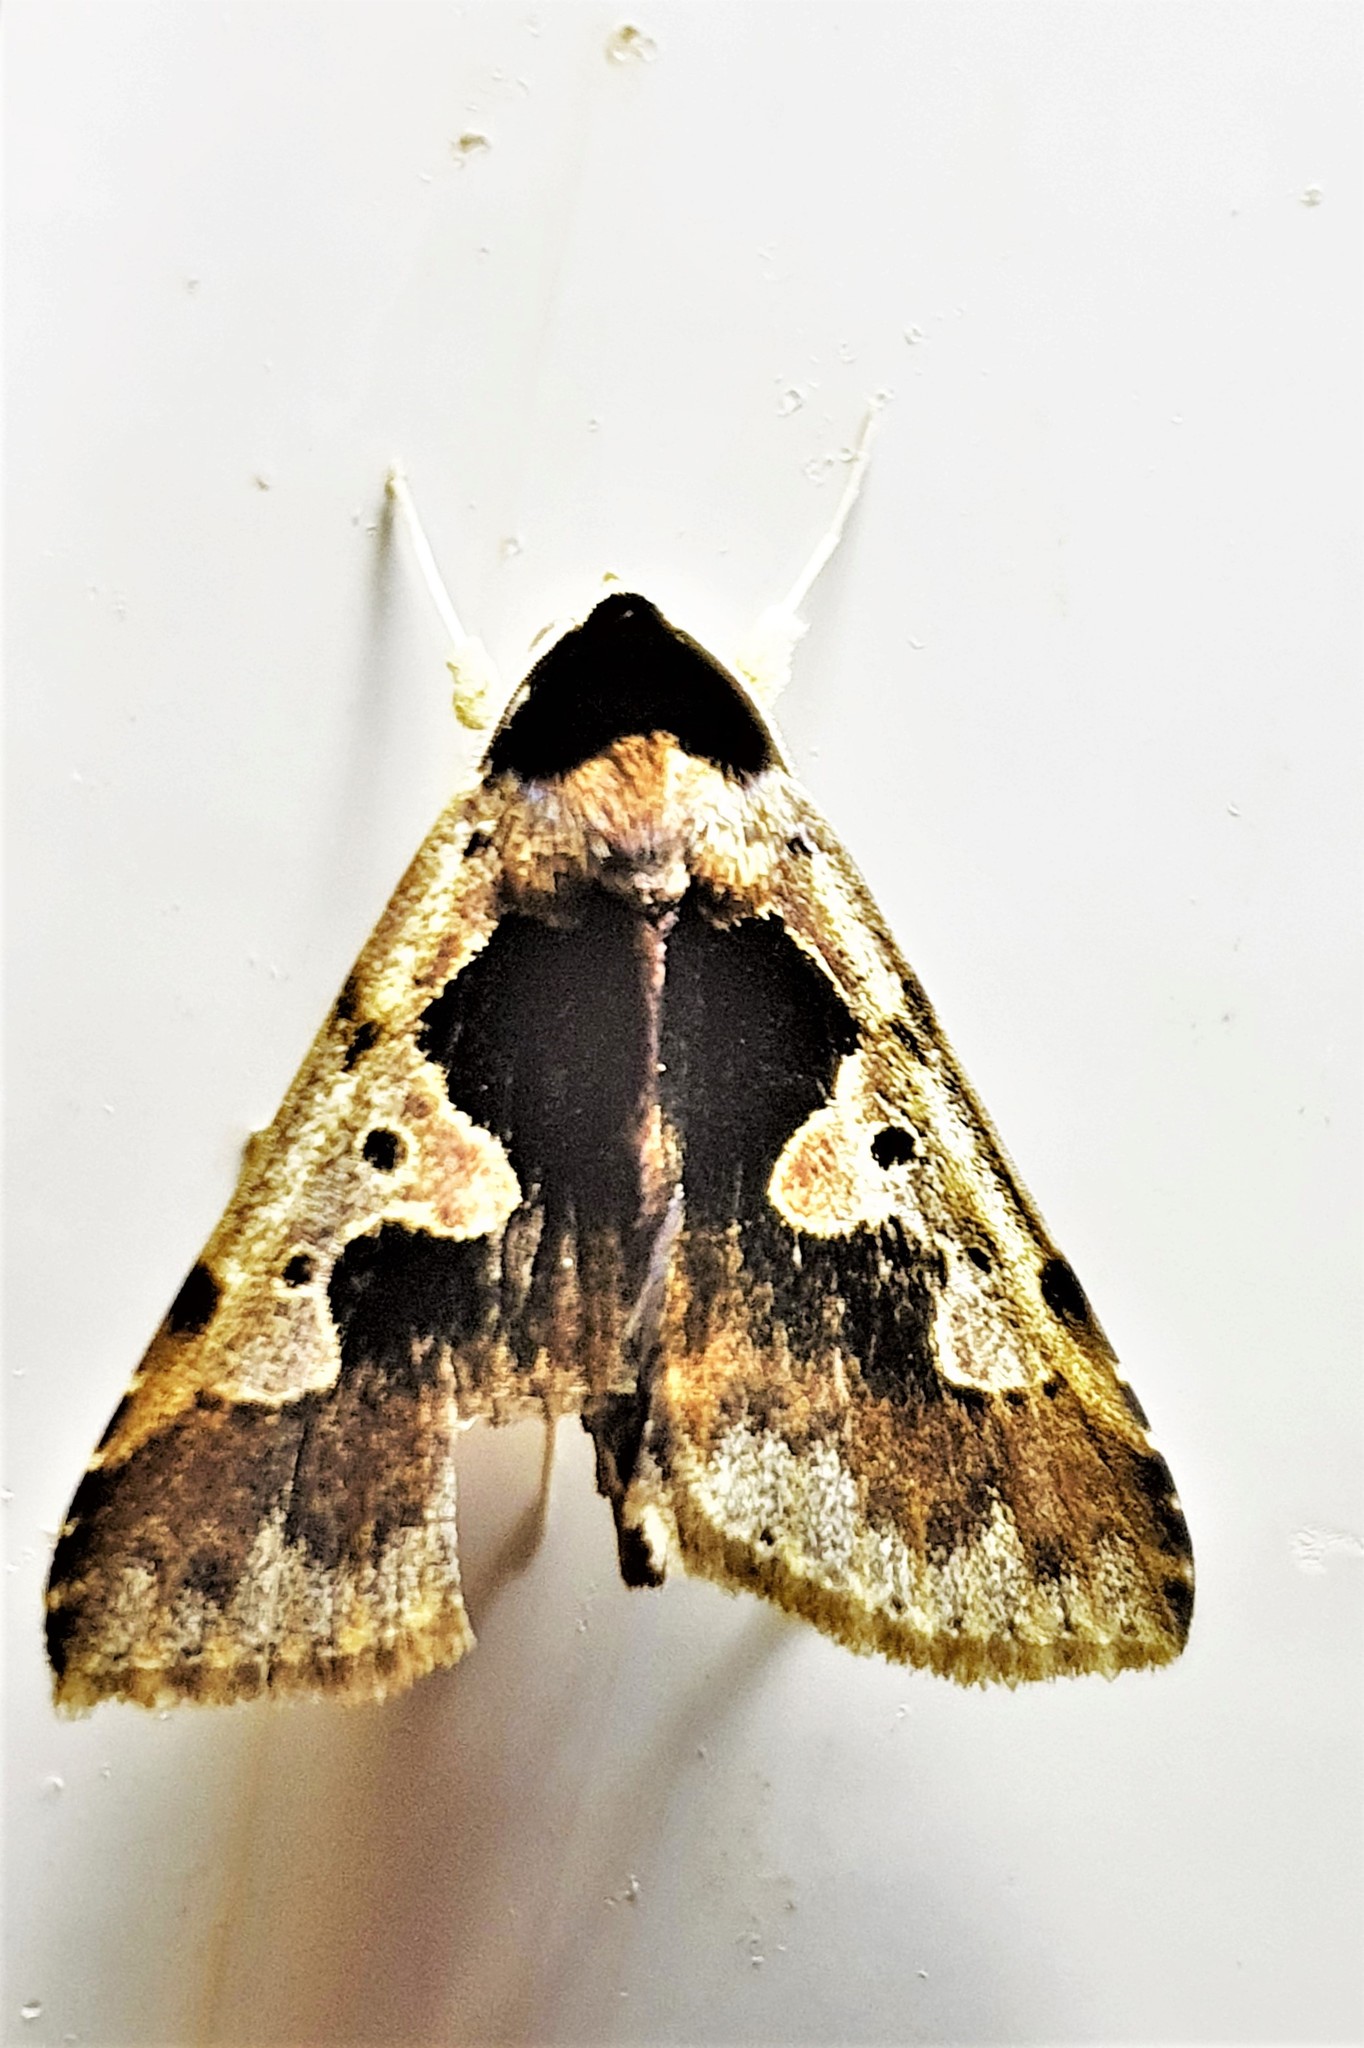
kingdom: Animalia
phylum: Arthropoda
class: Insecta
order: Lepidoptera
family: Erebidae
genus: Baniana
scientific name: Baniana gobar
